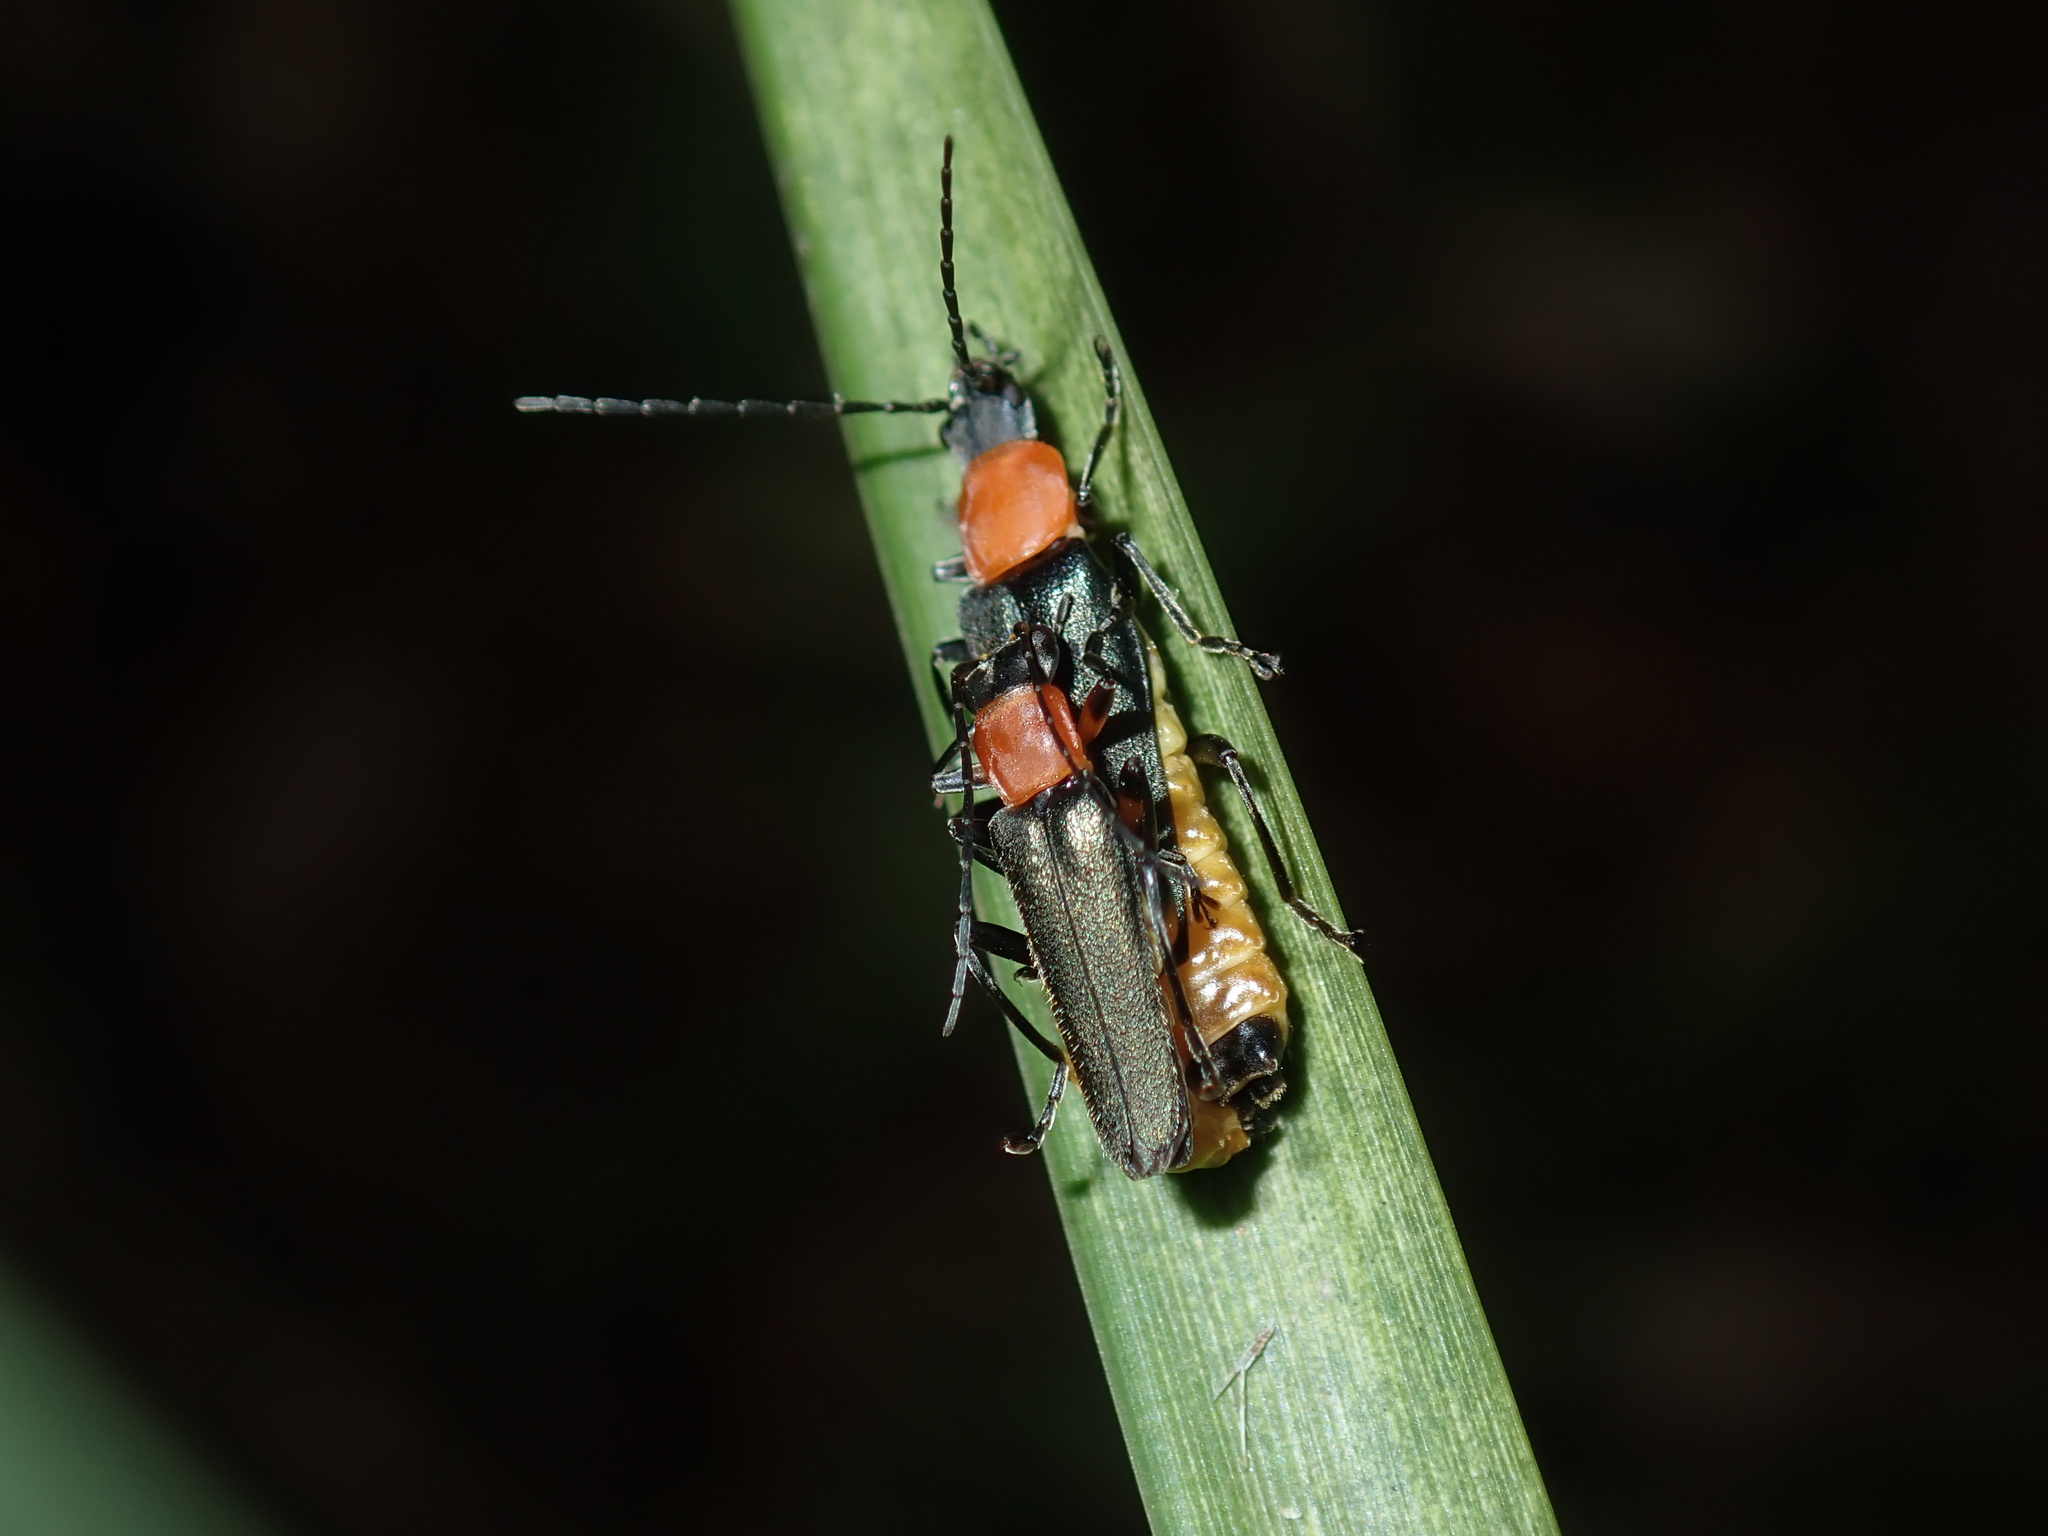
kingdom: Animalia
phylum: Arthropoda
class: Insecta
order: Coleoptera
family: Cantharidae
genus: Chauliognathus
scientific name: Chauliognathus
